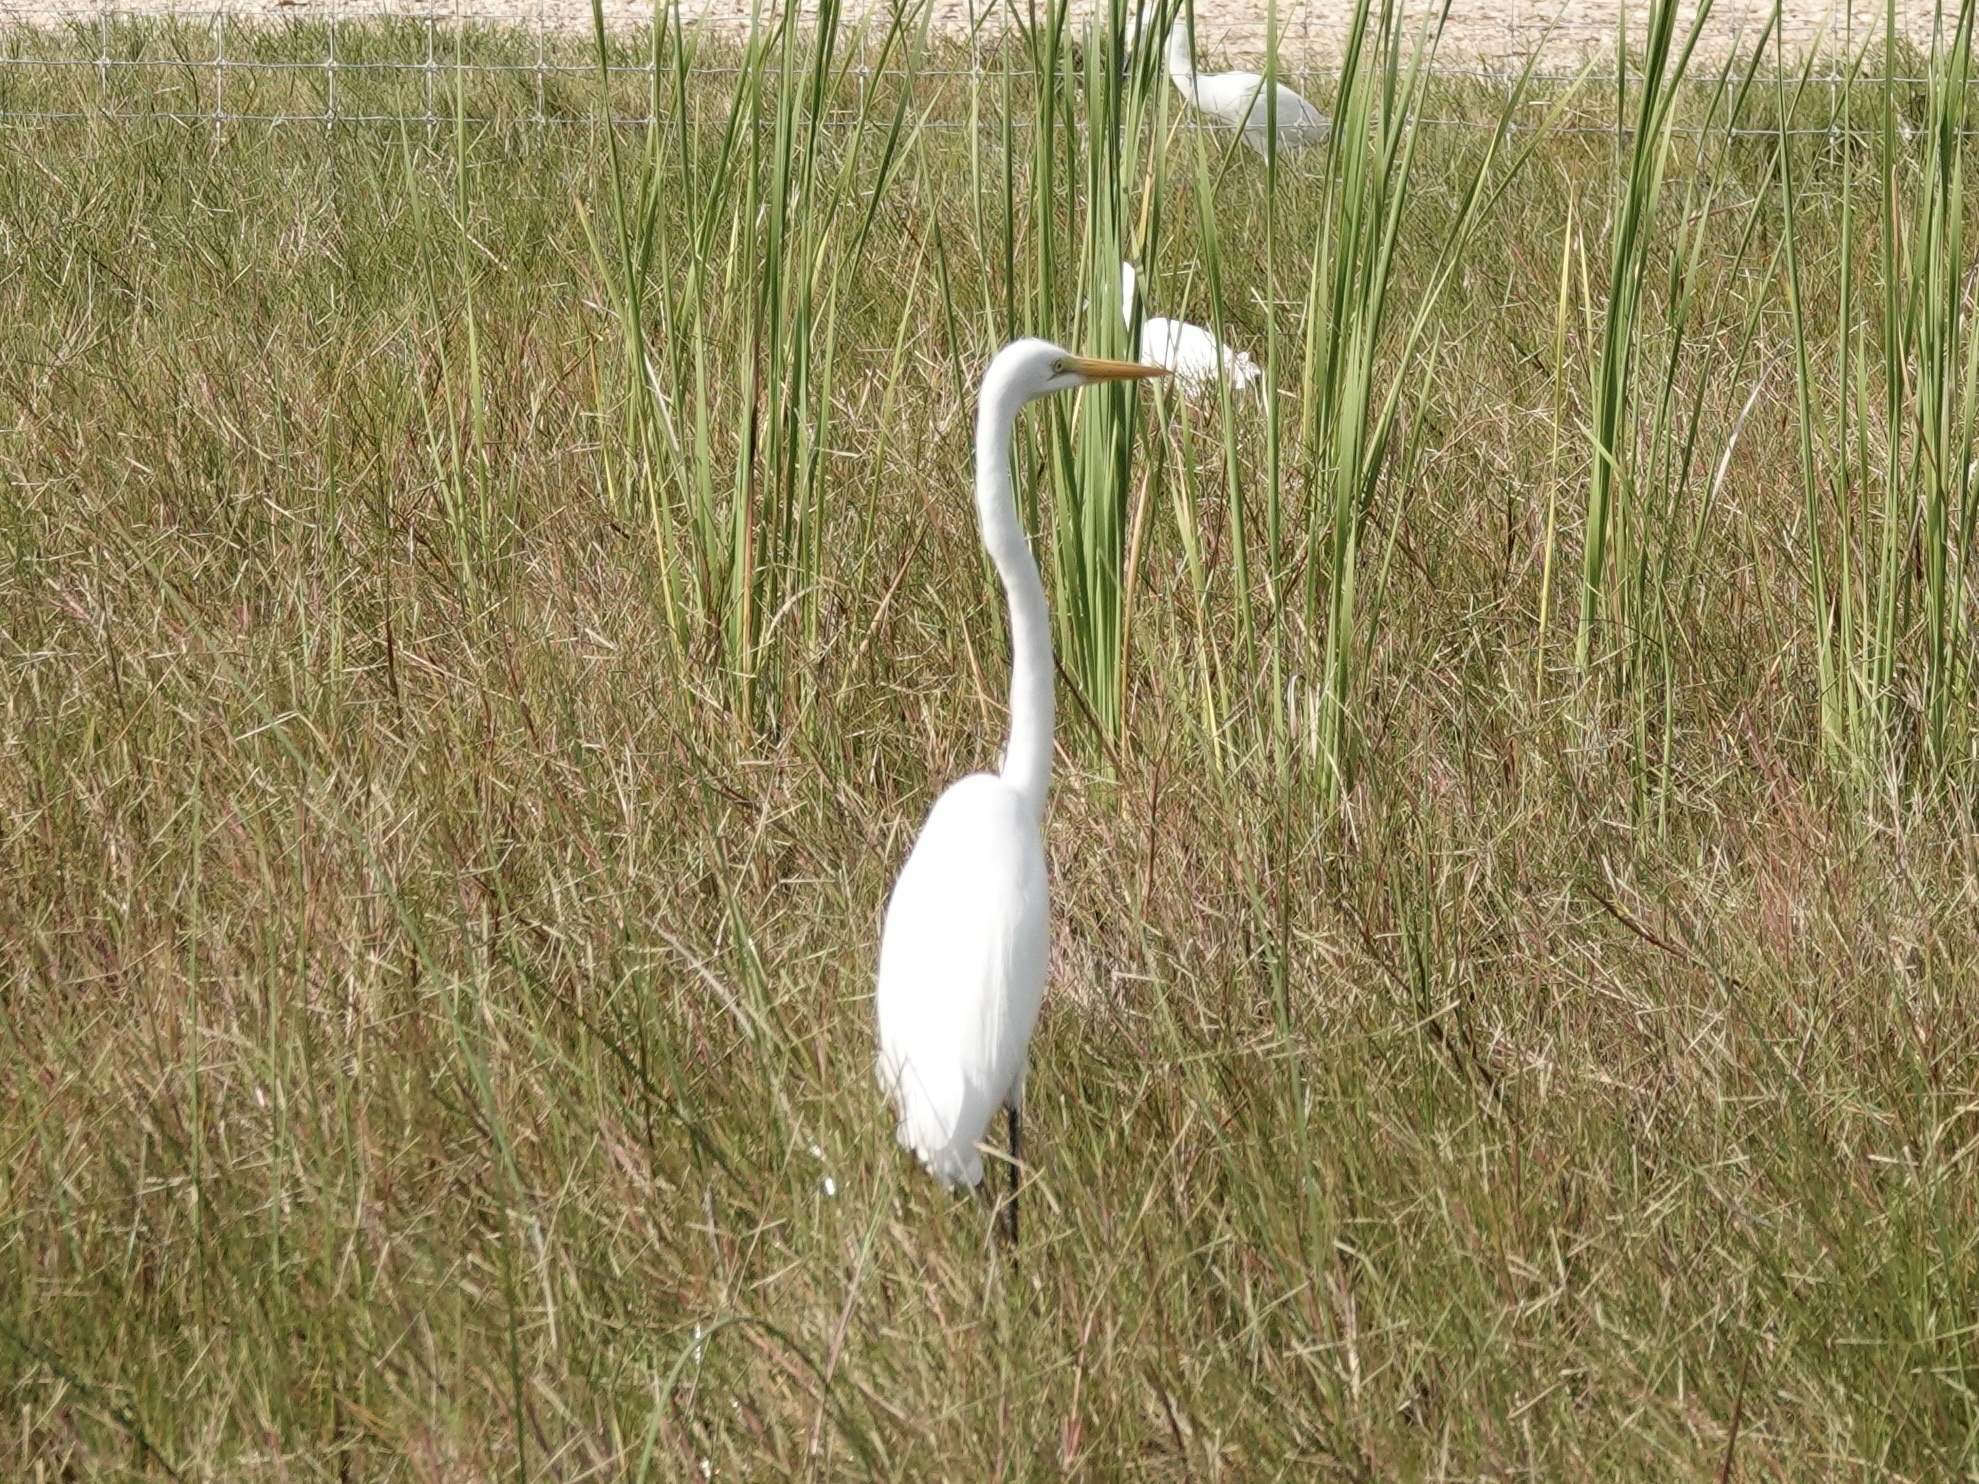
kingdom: Animalia
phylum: Chordata
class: Aves
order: Pelecaniformes
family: Ardeidae
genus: Ardea
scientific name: Ardea alba
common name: Great egret
